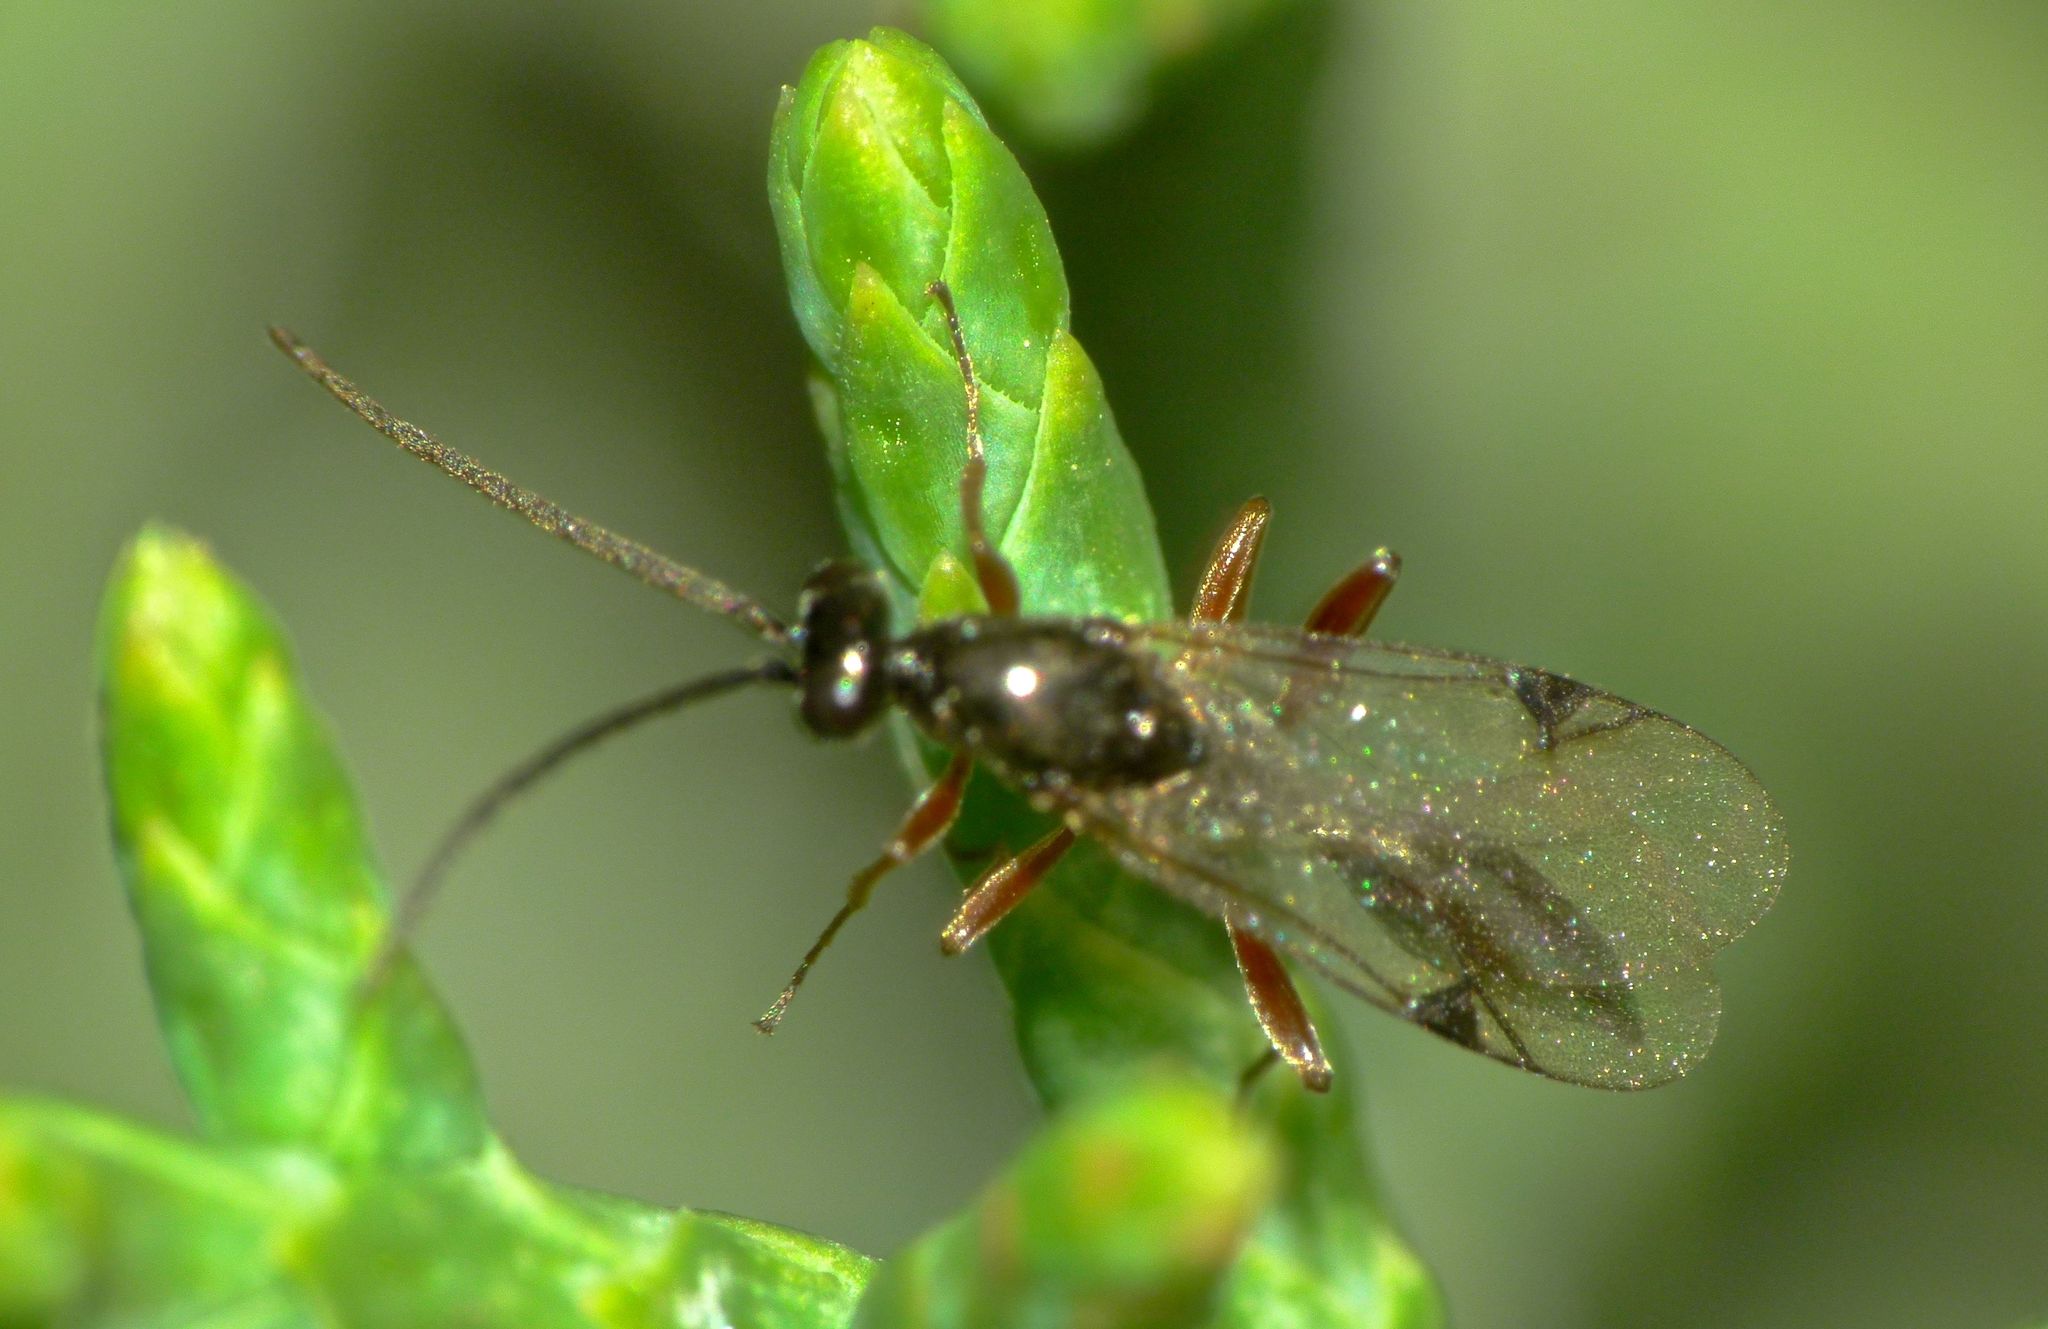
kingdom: Animalia
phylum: Arthropoda
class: Insecta
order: Hymenoptera
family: Proctotrupidae
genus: Fustiserphus
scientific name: Fustiserphus
